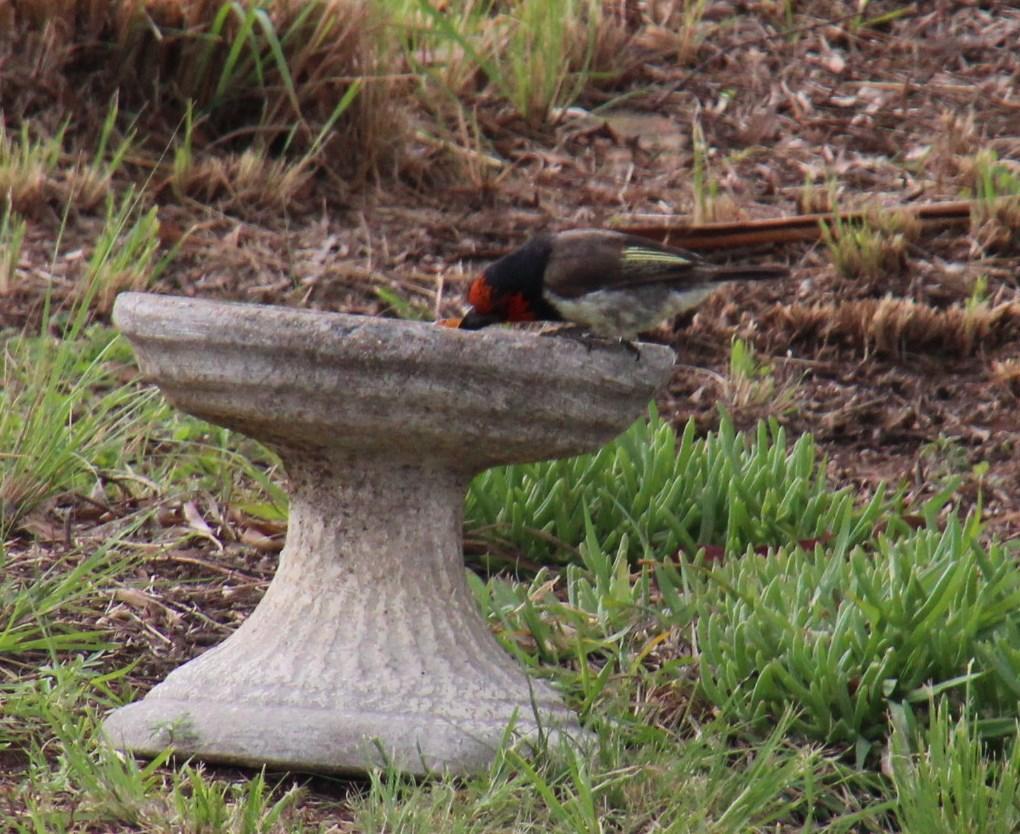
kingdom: Animalia
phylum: Chordata
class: Aves
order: Piciformes
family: Lybiidae
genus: Lybius
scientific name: Lybius torquatus
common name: Black-collared barbet
